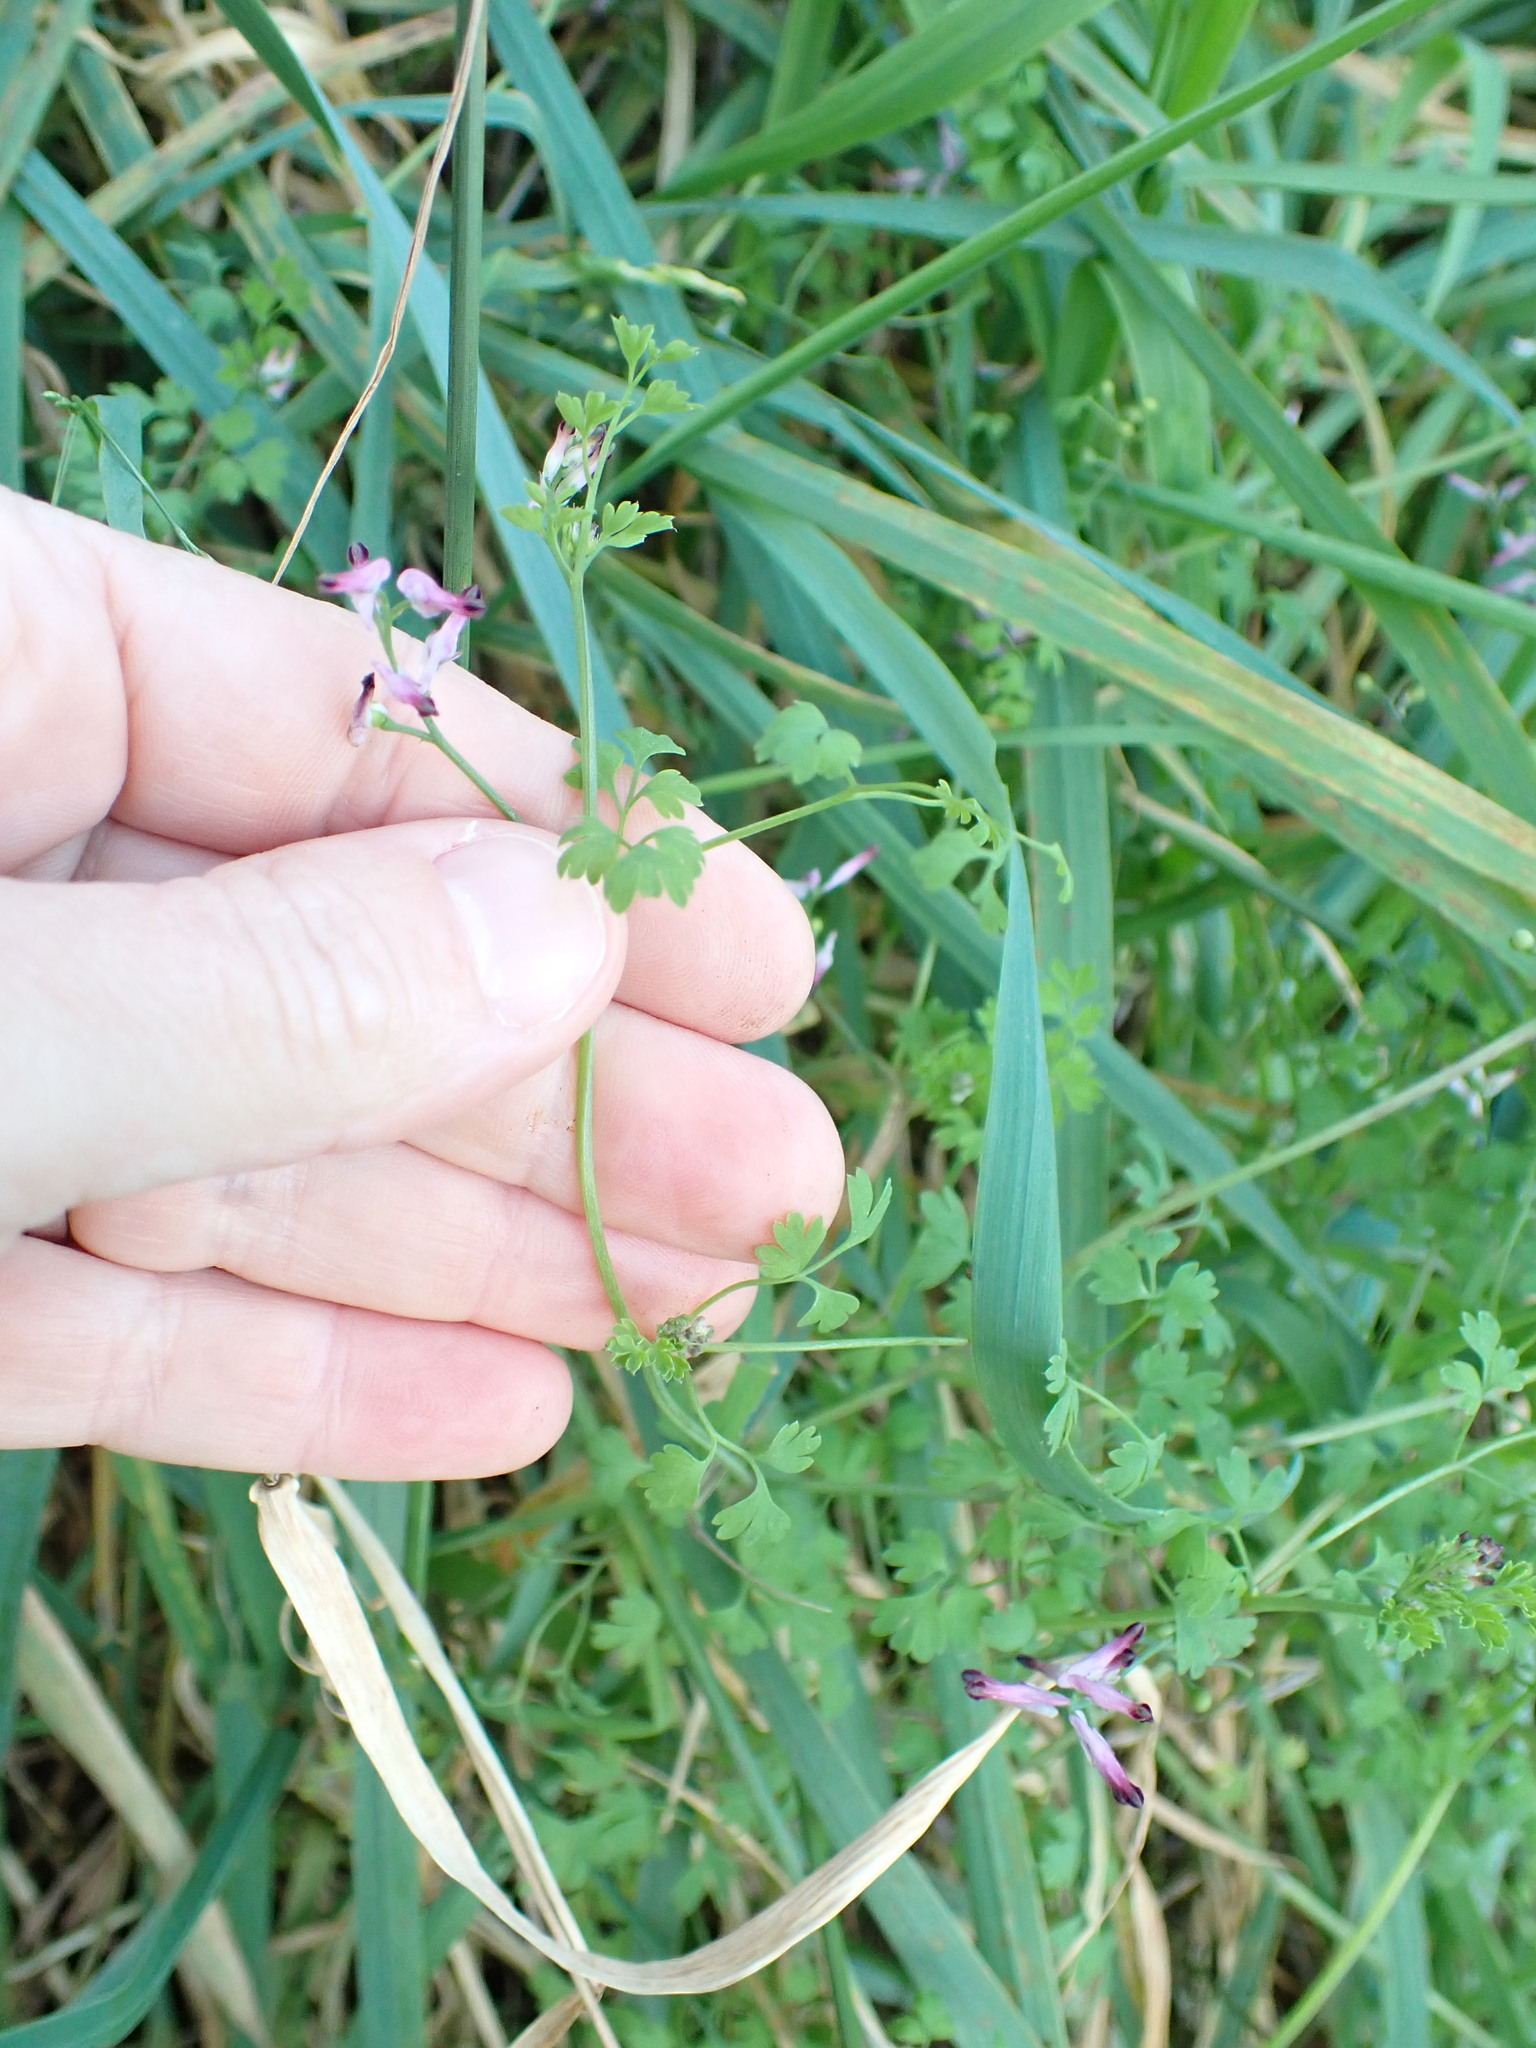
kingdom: Plantae
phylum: Tracheophyta
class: Magnoliopsida
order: Ranunculales
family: Papaveraceae
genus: Fumaria
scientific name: Fumaria muralis
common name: Common ramping-fumitory
